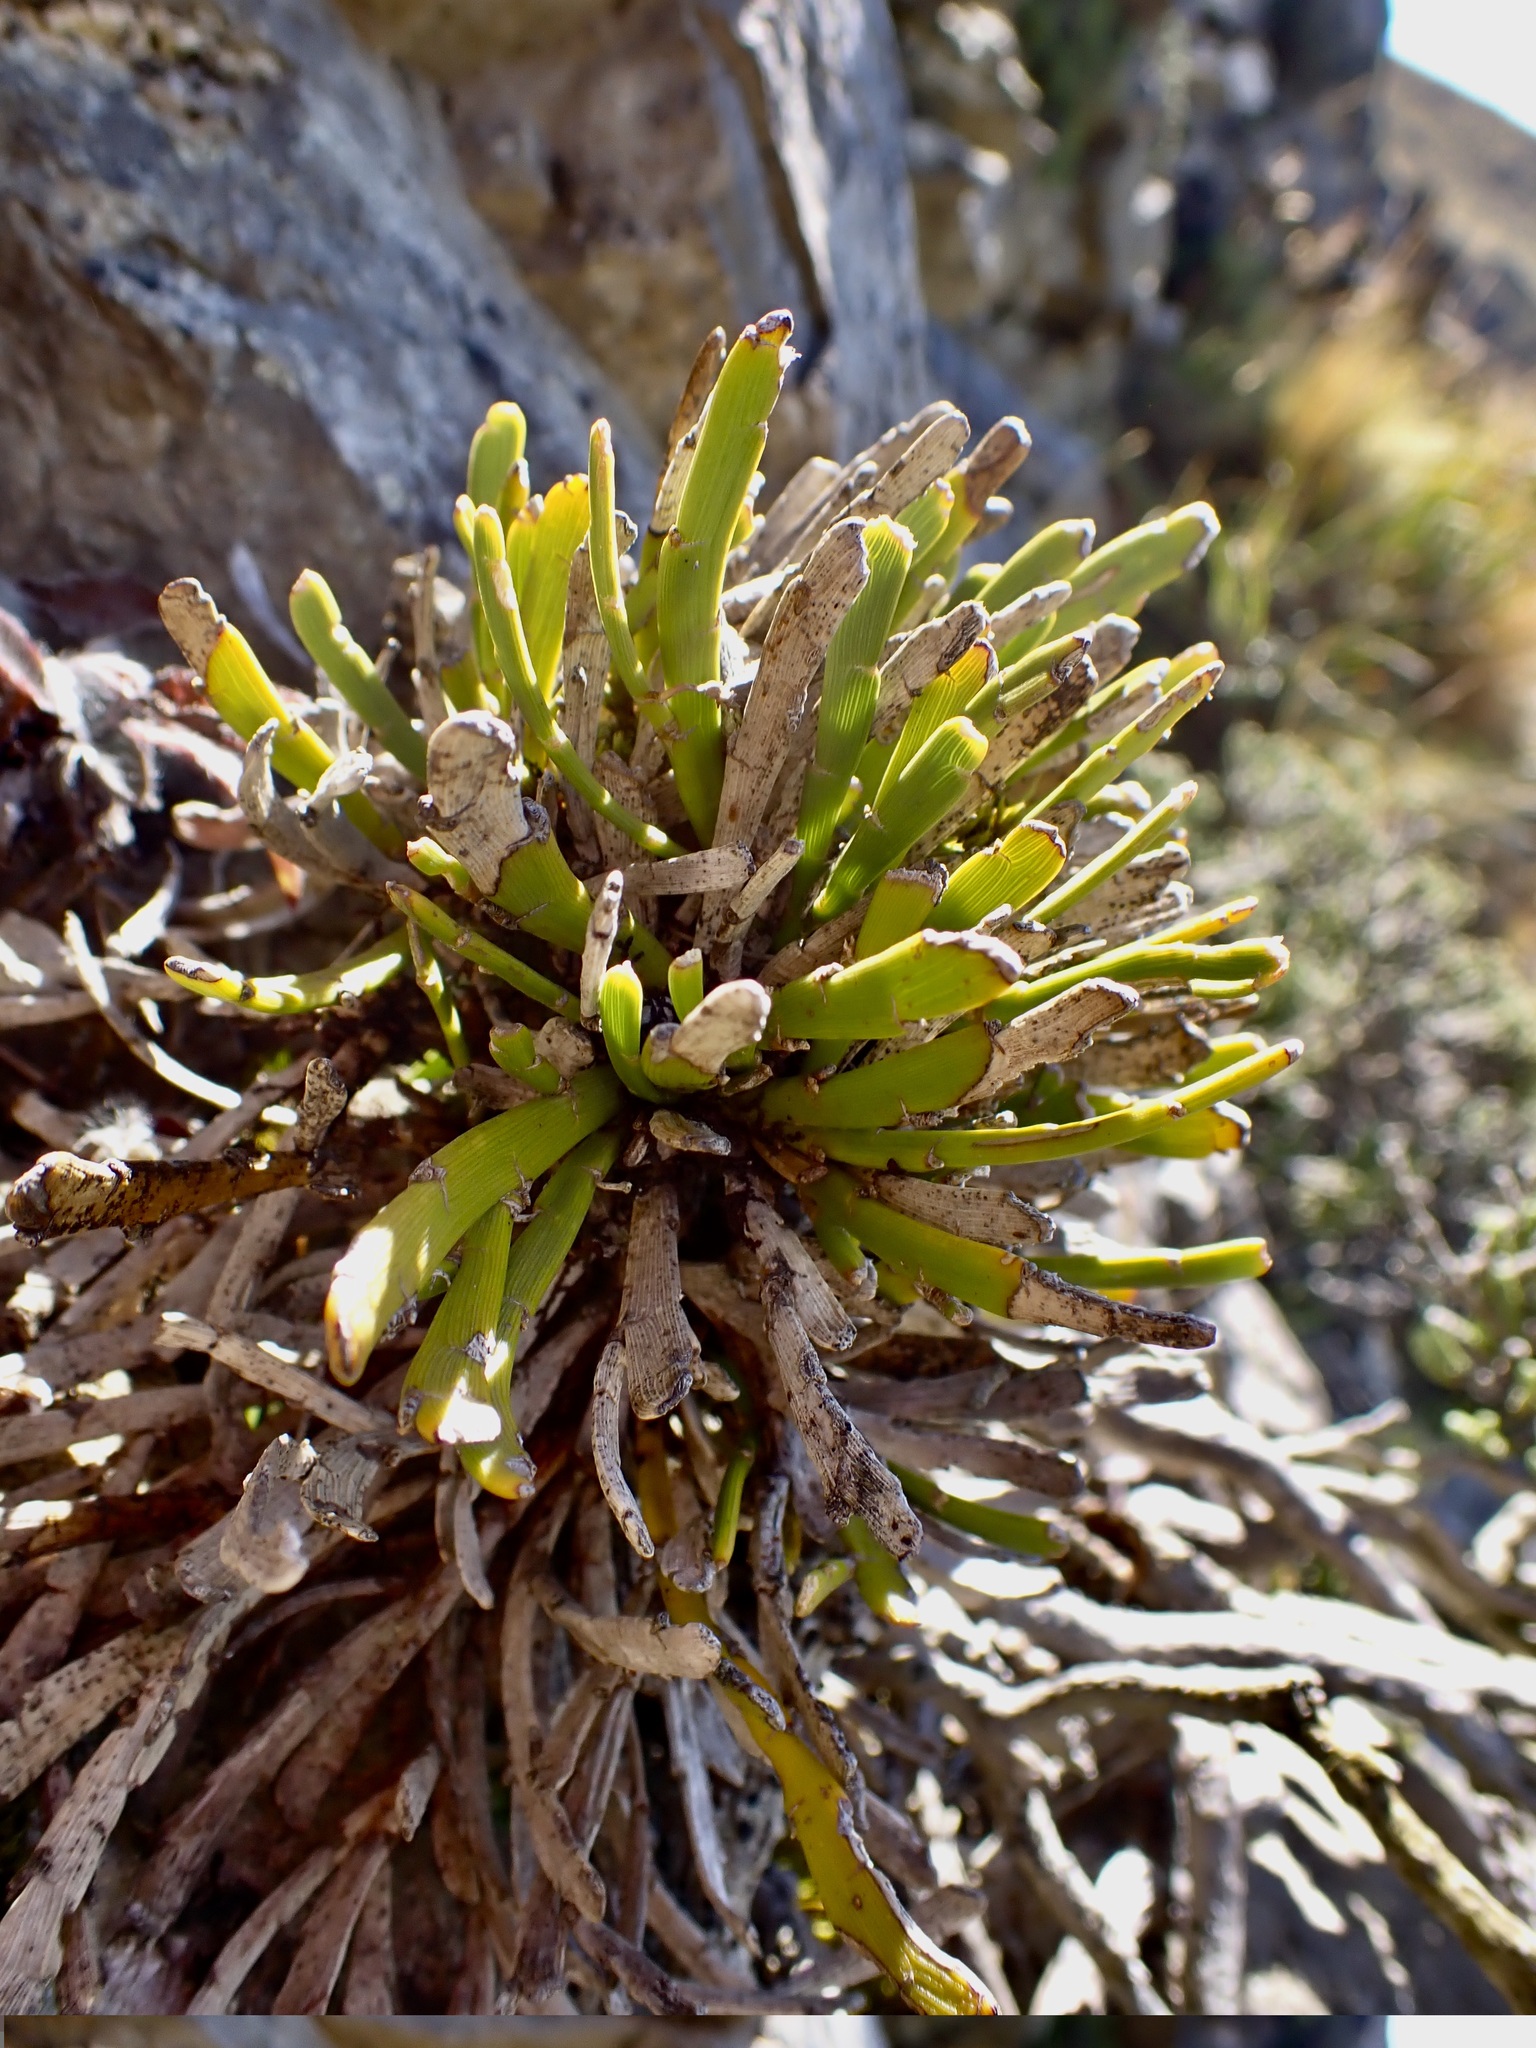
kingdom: Plantae
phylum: Tracheophyta
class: Magnoliopsida
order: Fabales
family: Fabaceae
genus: Carmichaelia
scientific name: Carmichaelia monroi
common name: Stout dwarf broom
